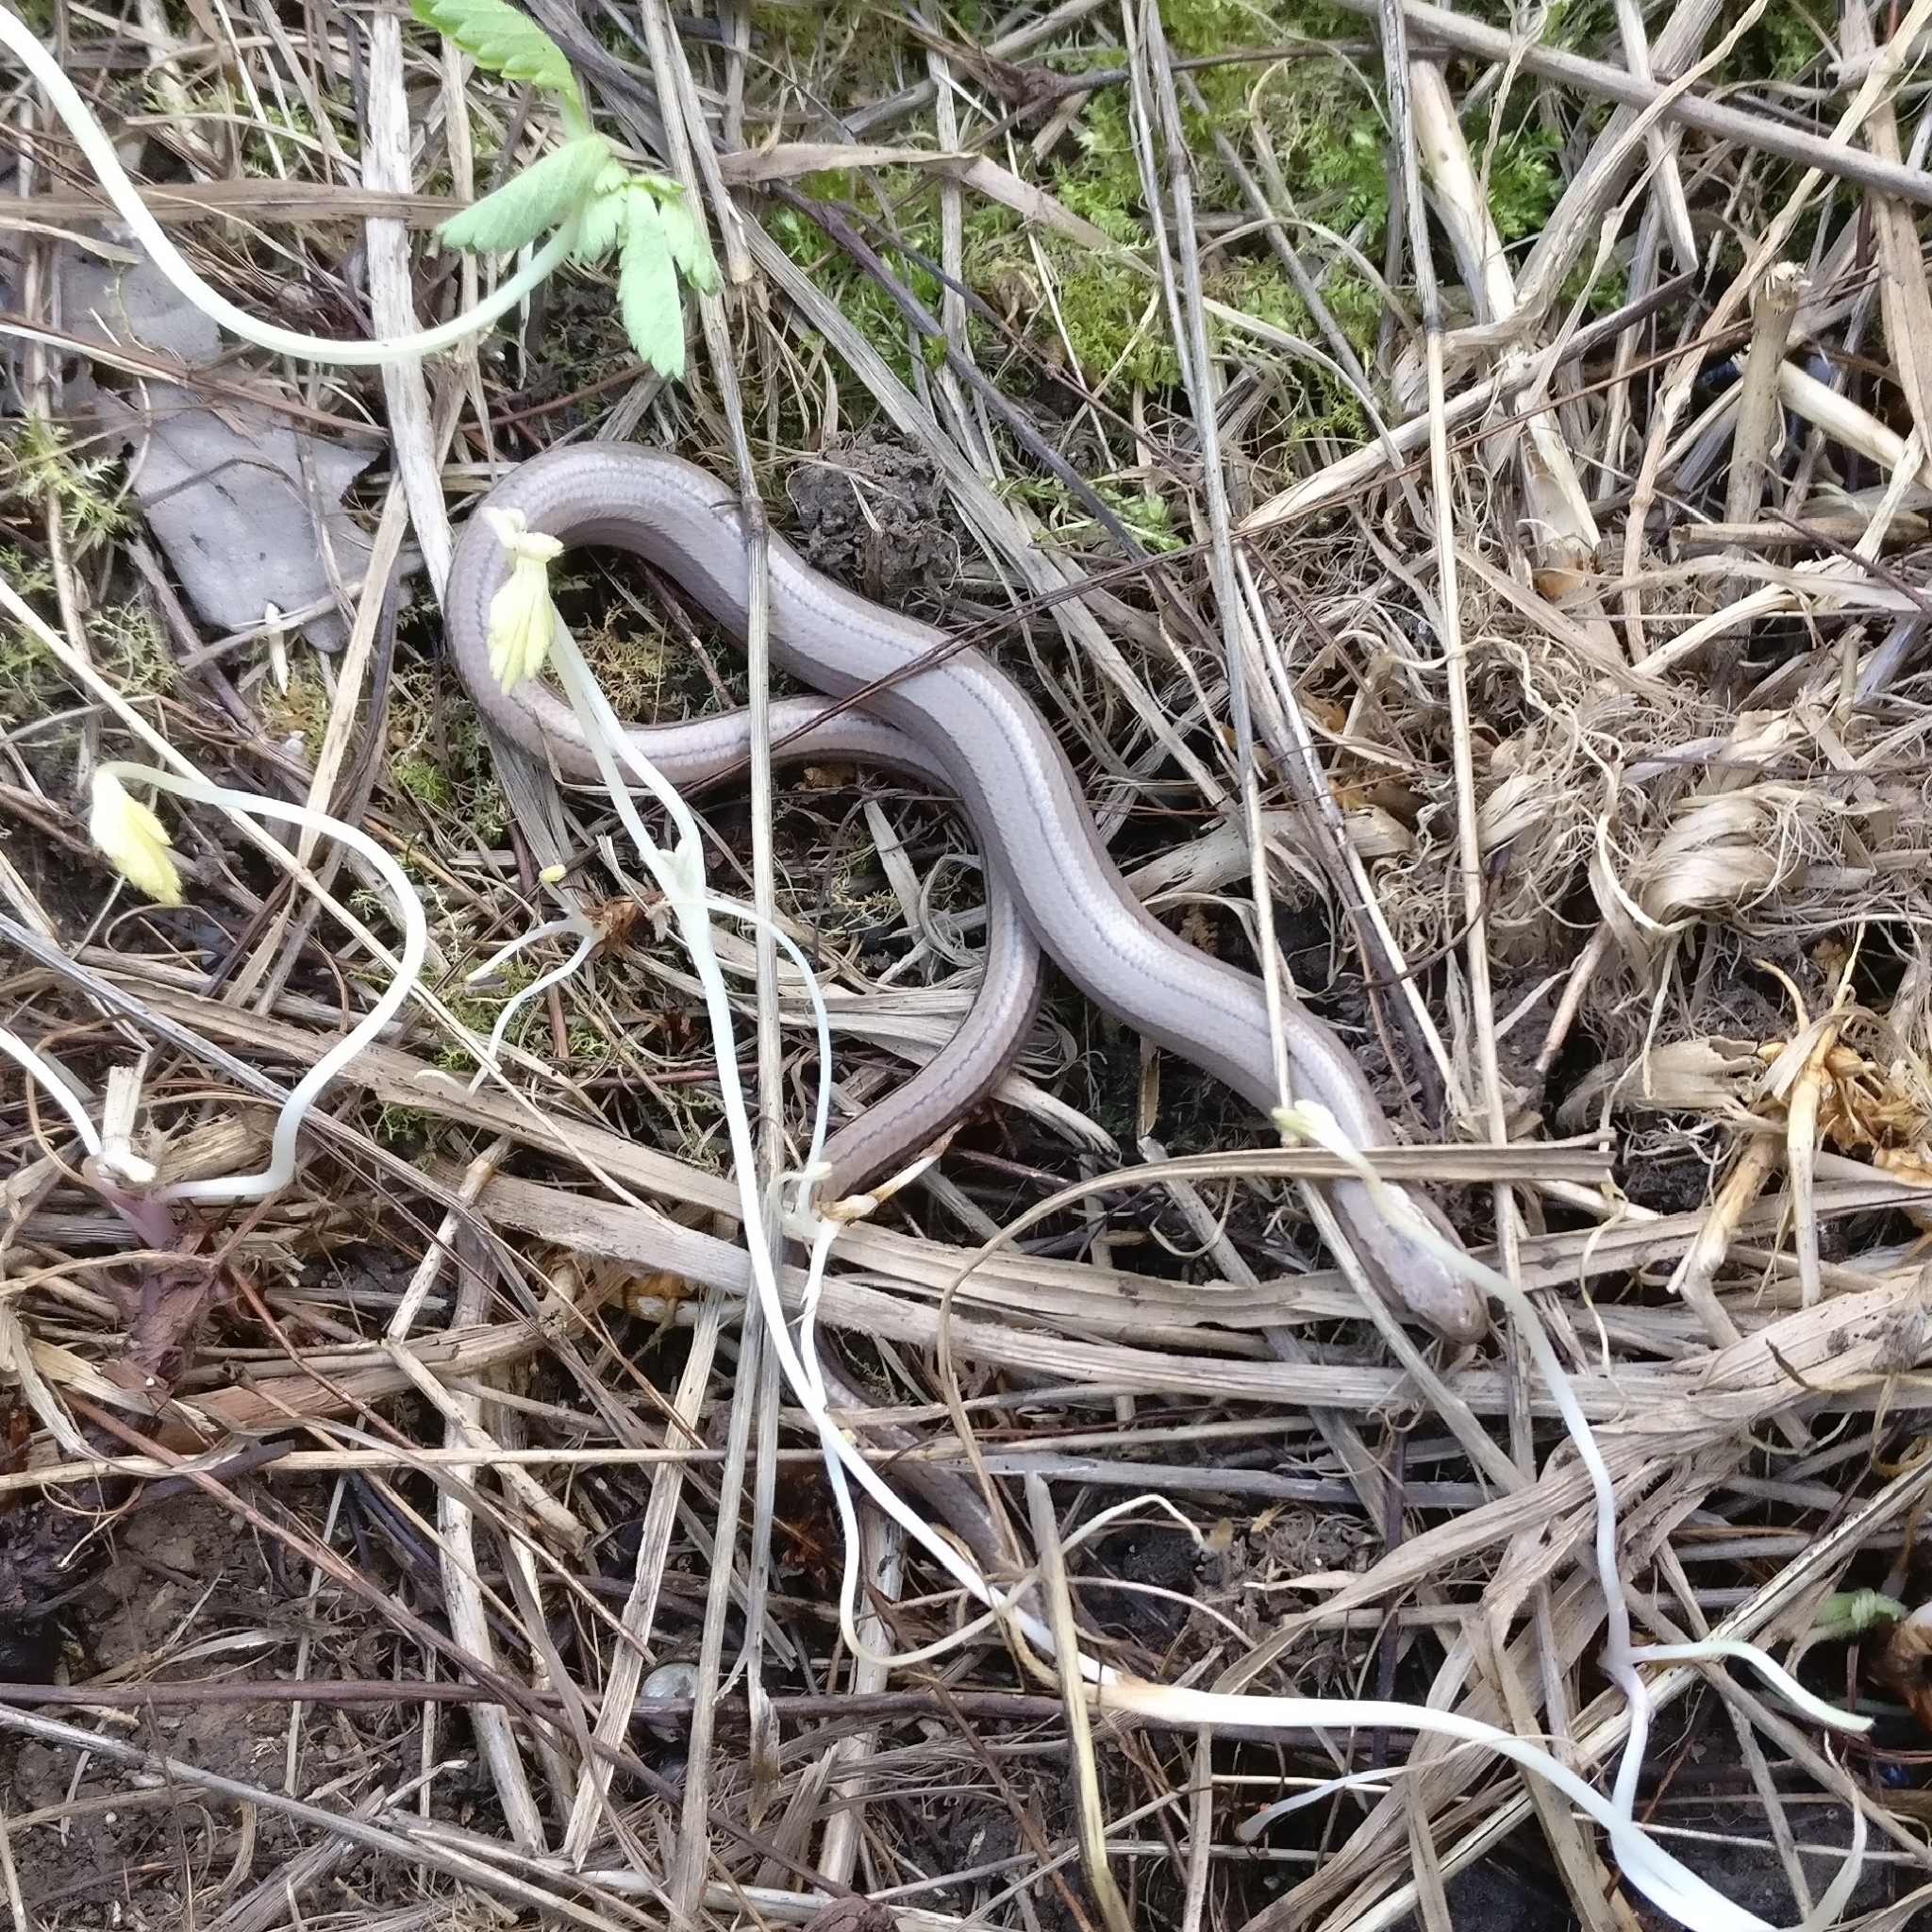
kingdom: Animalia
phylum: Chordata
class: Squamata
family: Anguidae
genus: Anguis
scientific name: Anguis fragilis
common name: Slow worm
